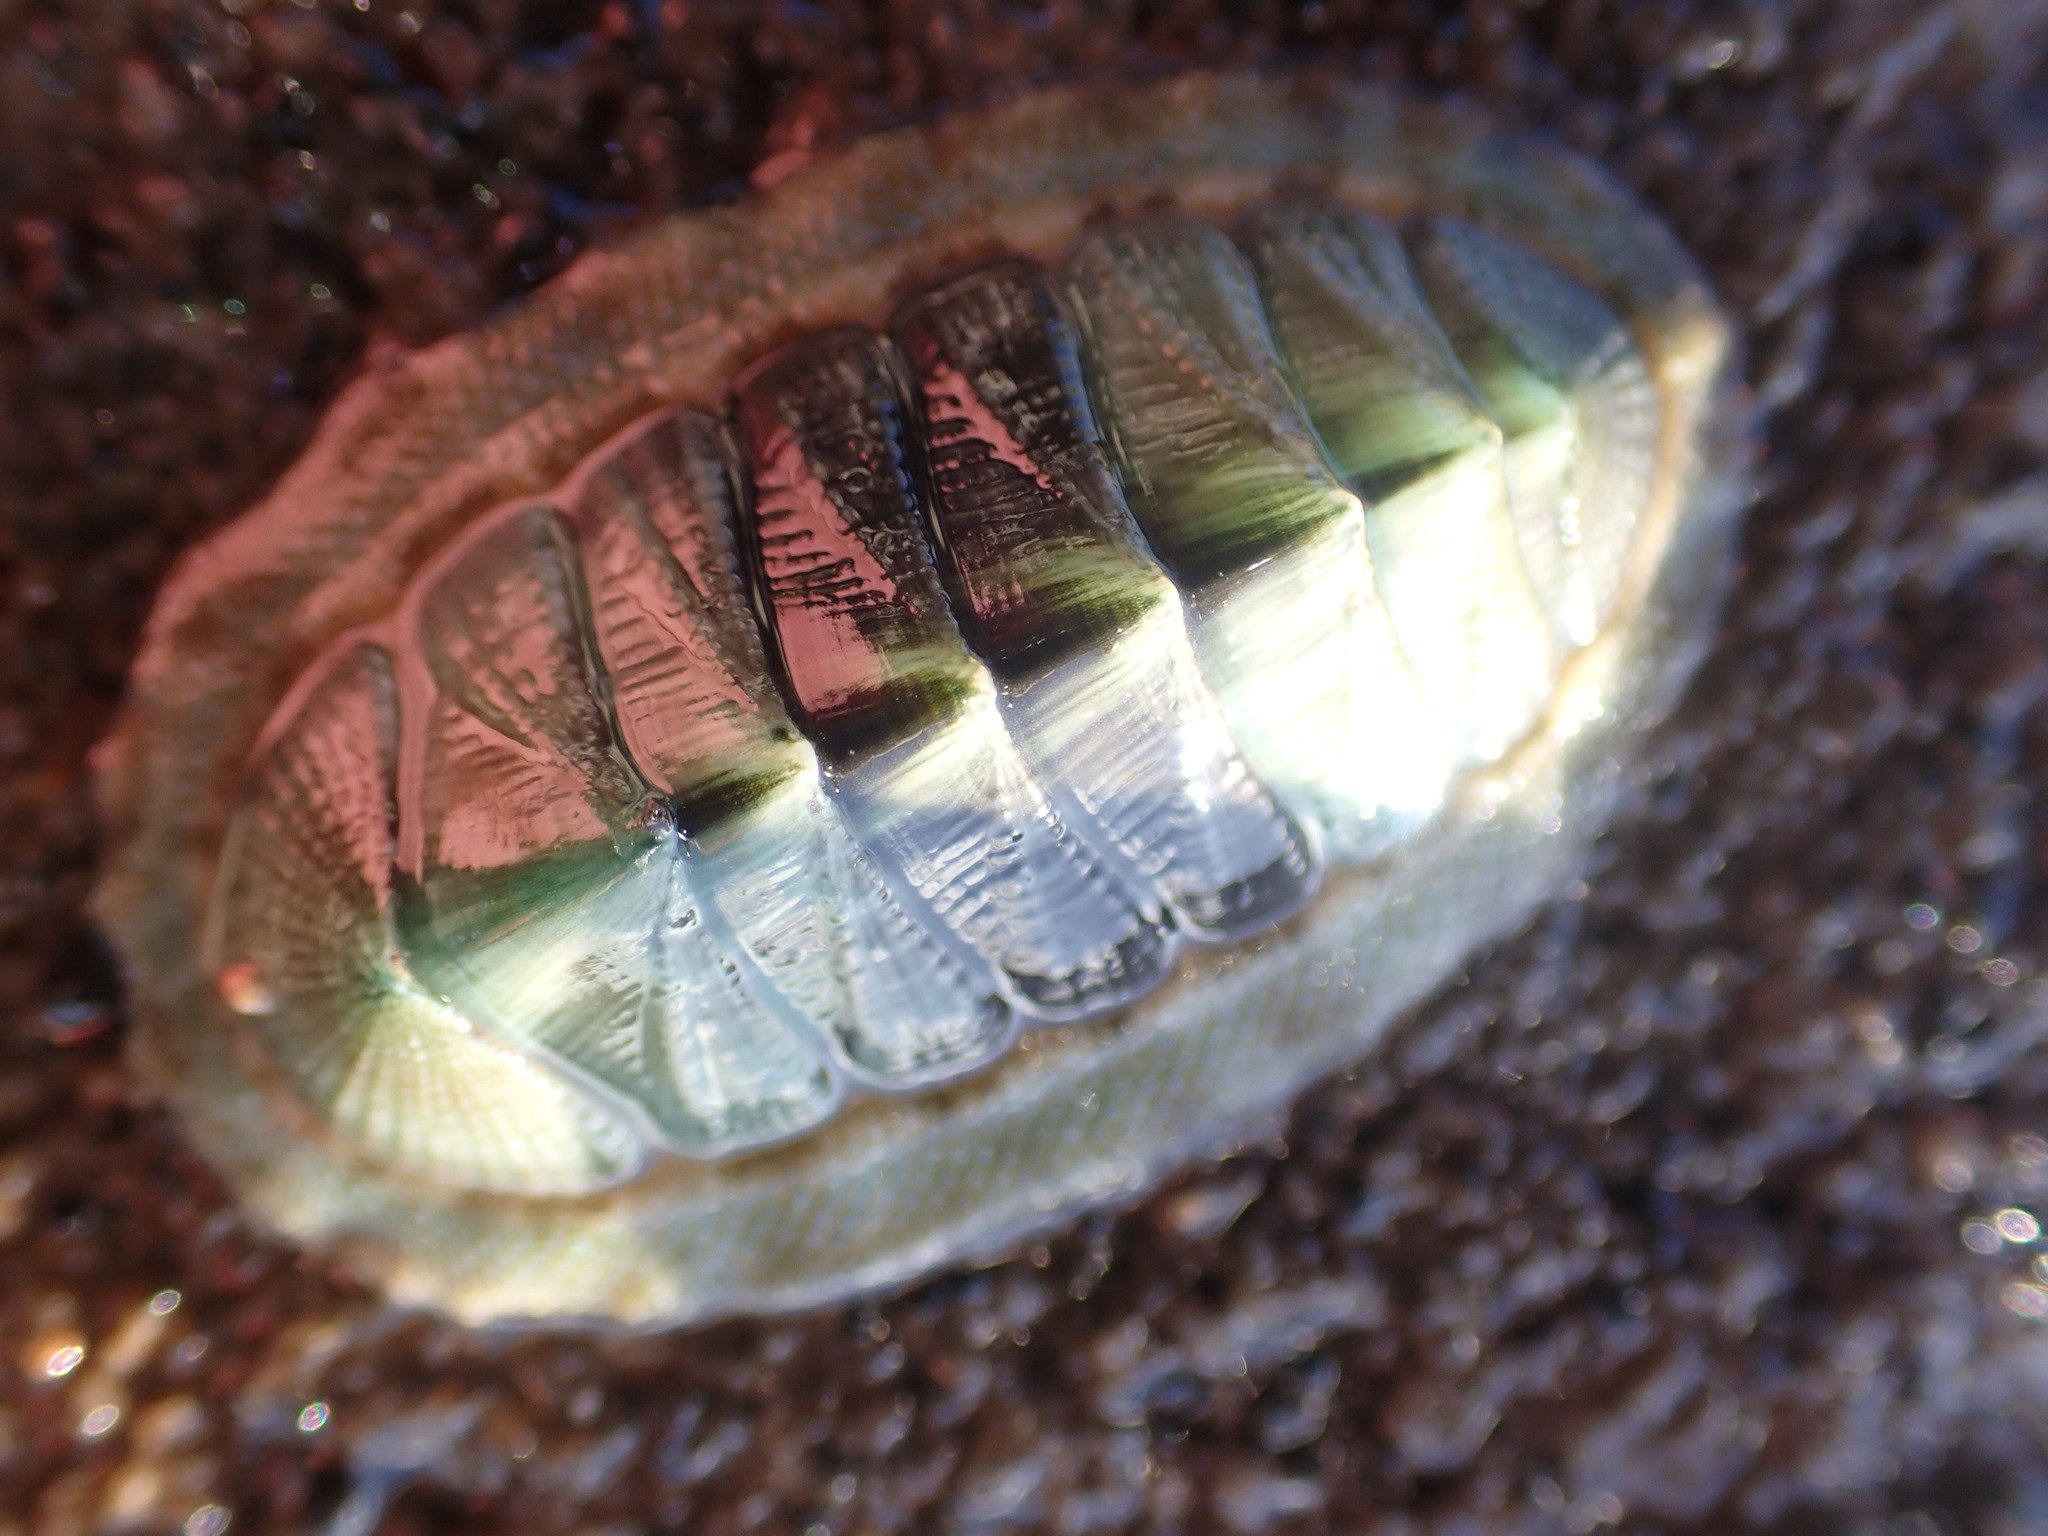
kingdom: Animalia
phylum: Mollusca
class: Polyplacophora
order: Chitonida
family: Chitonidae
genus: Rhyssoplax
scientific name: Rhyssoplax aerea
